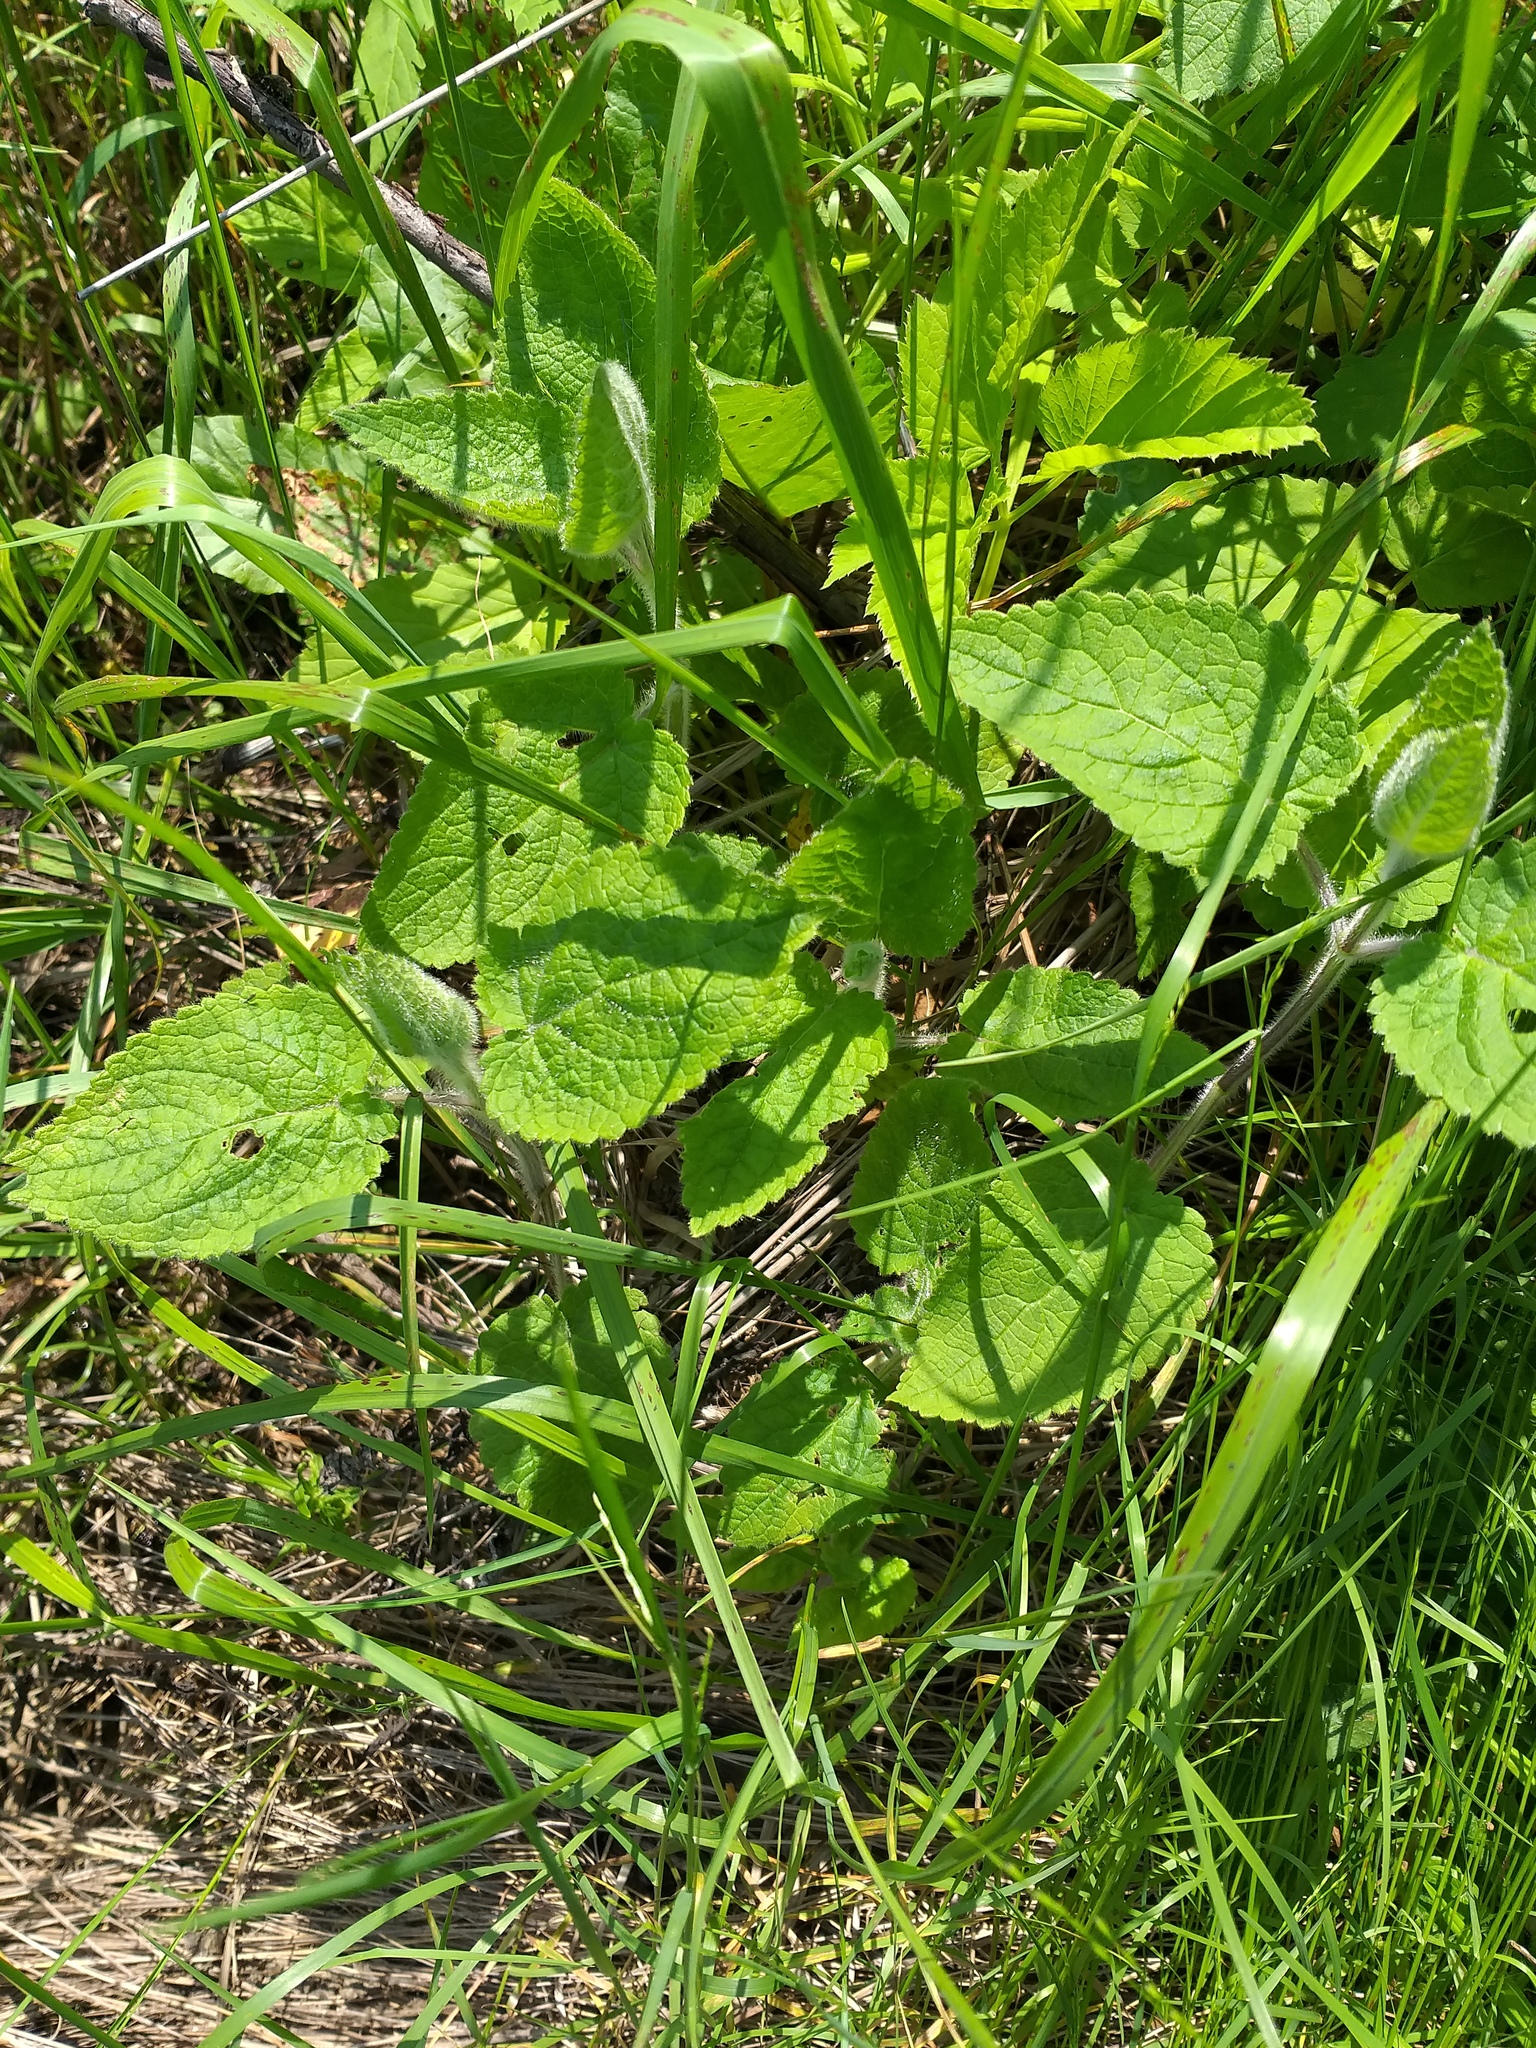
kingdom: Plantae
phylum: Tracheophyta
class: Magnoliopsida
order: Lamiales
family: Lamiaceae
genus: Stachys
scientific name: Stachys sylvatica
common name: Hedge woundwort
